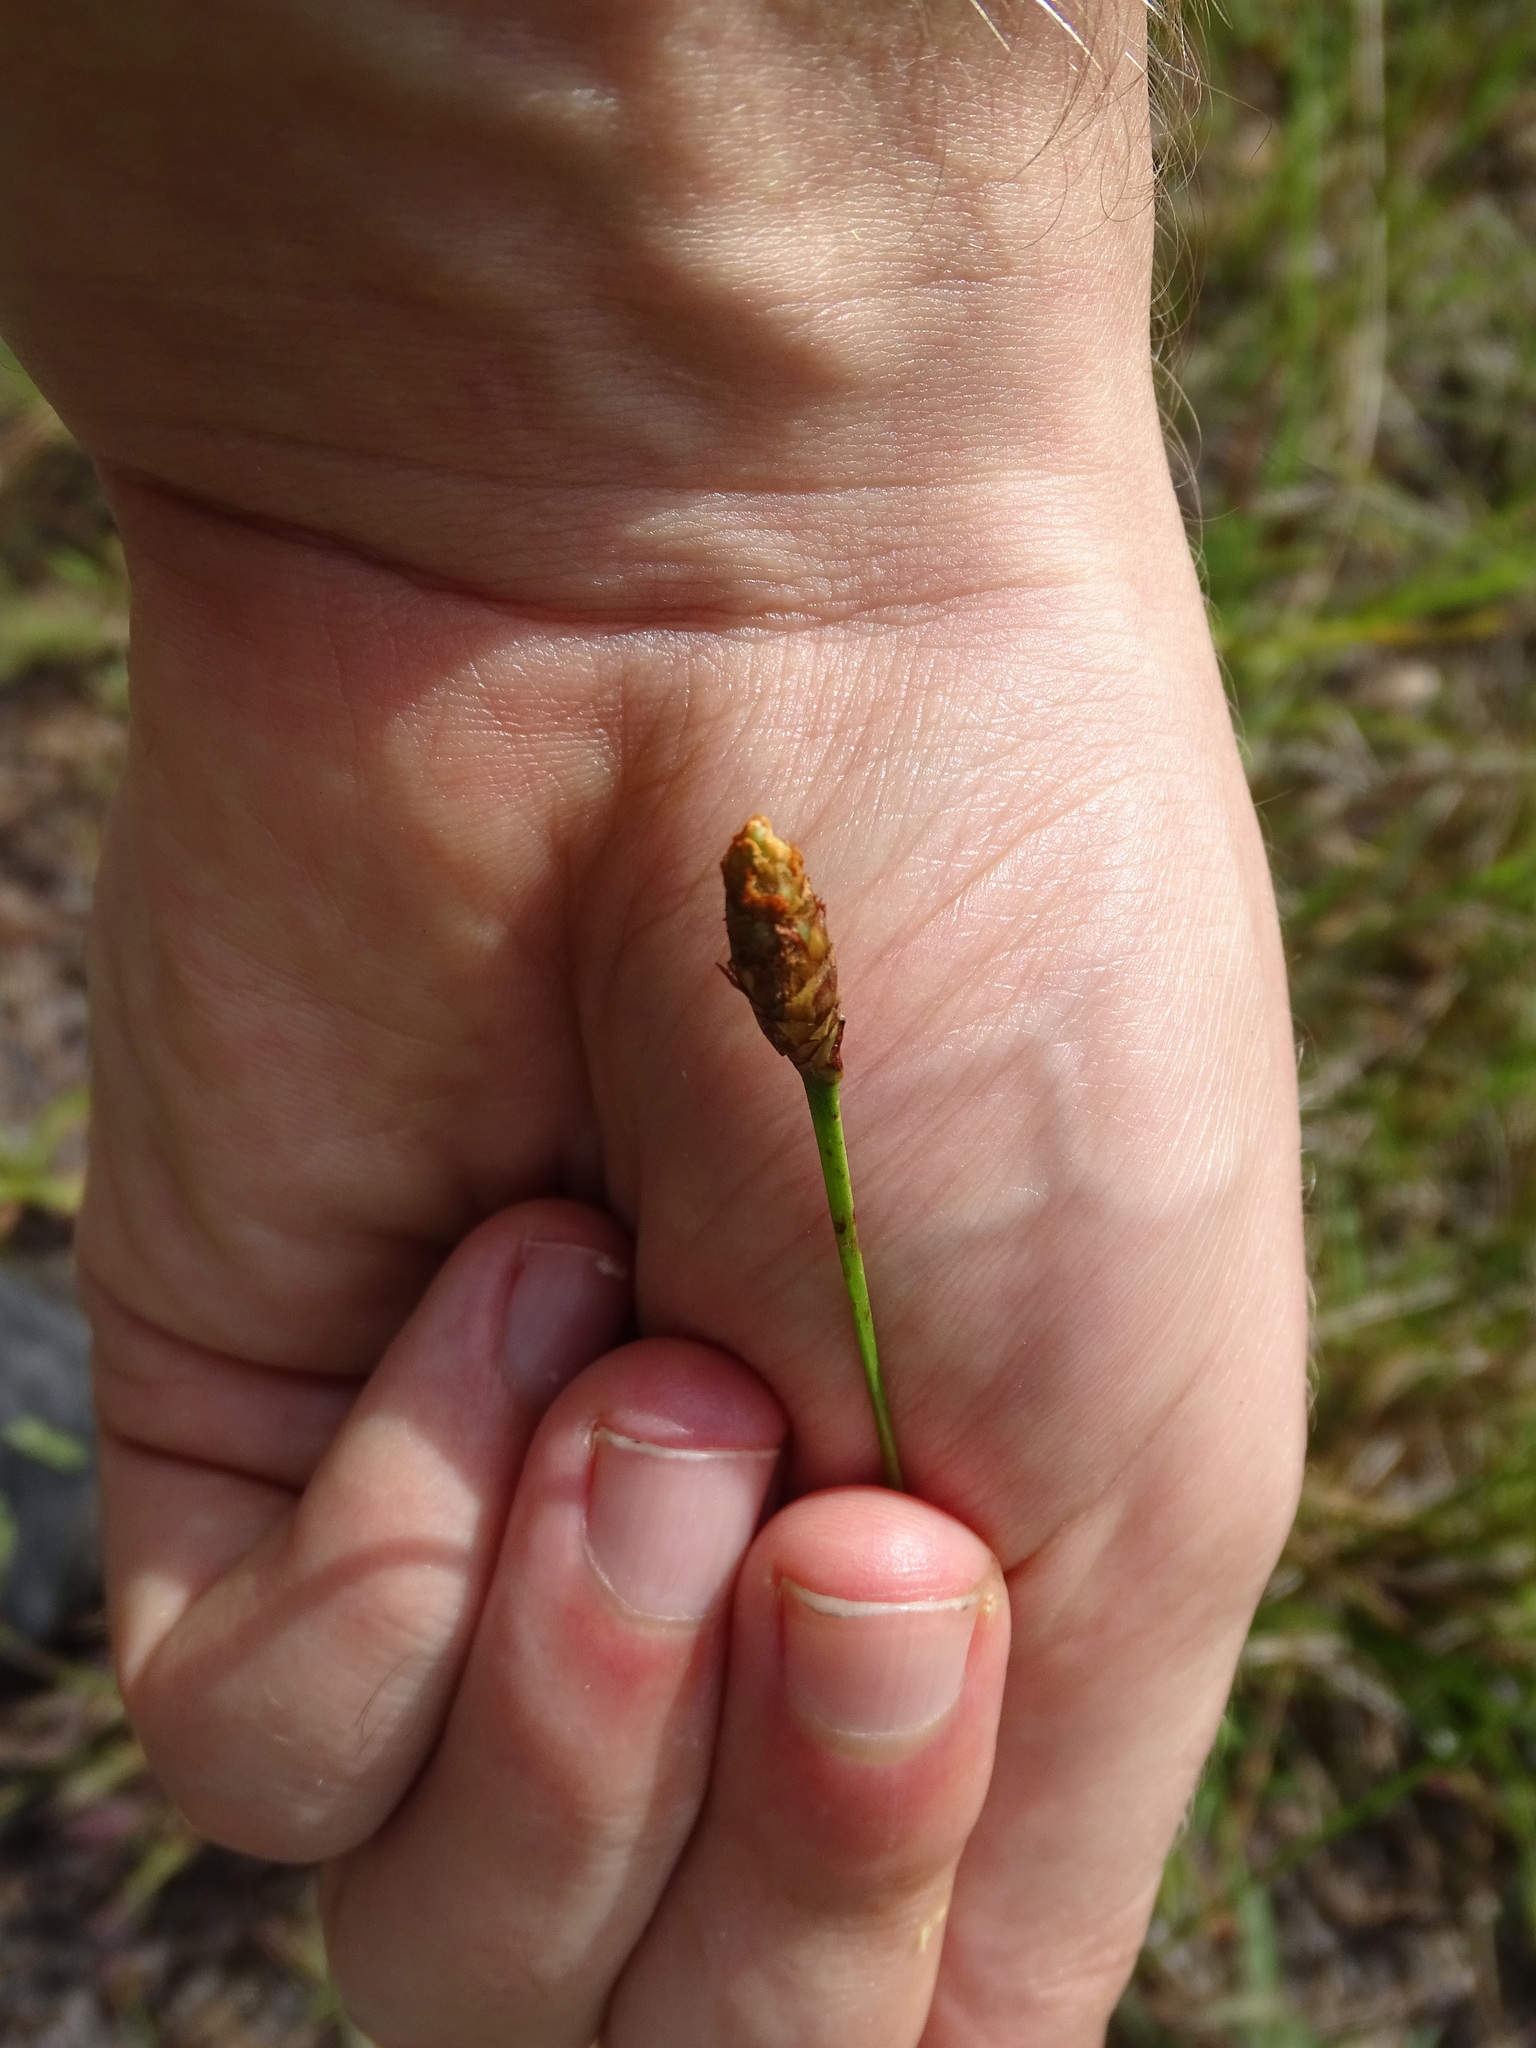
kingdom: Plantae
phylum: Tracheophyta
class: Liliopsida
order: Poales
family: Xyridaceae
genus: Xyris
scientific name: Xyris caroliniana
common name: Carolina yellow-eyed-grass
